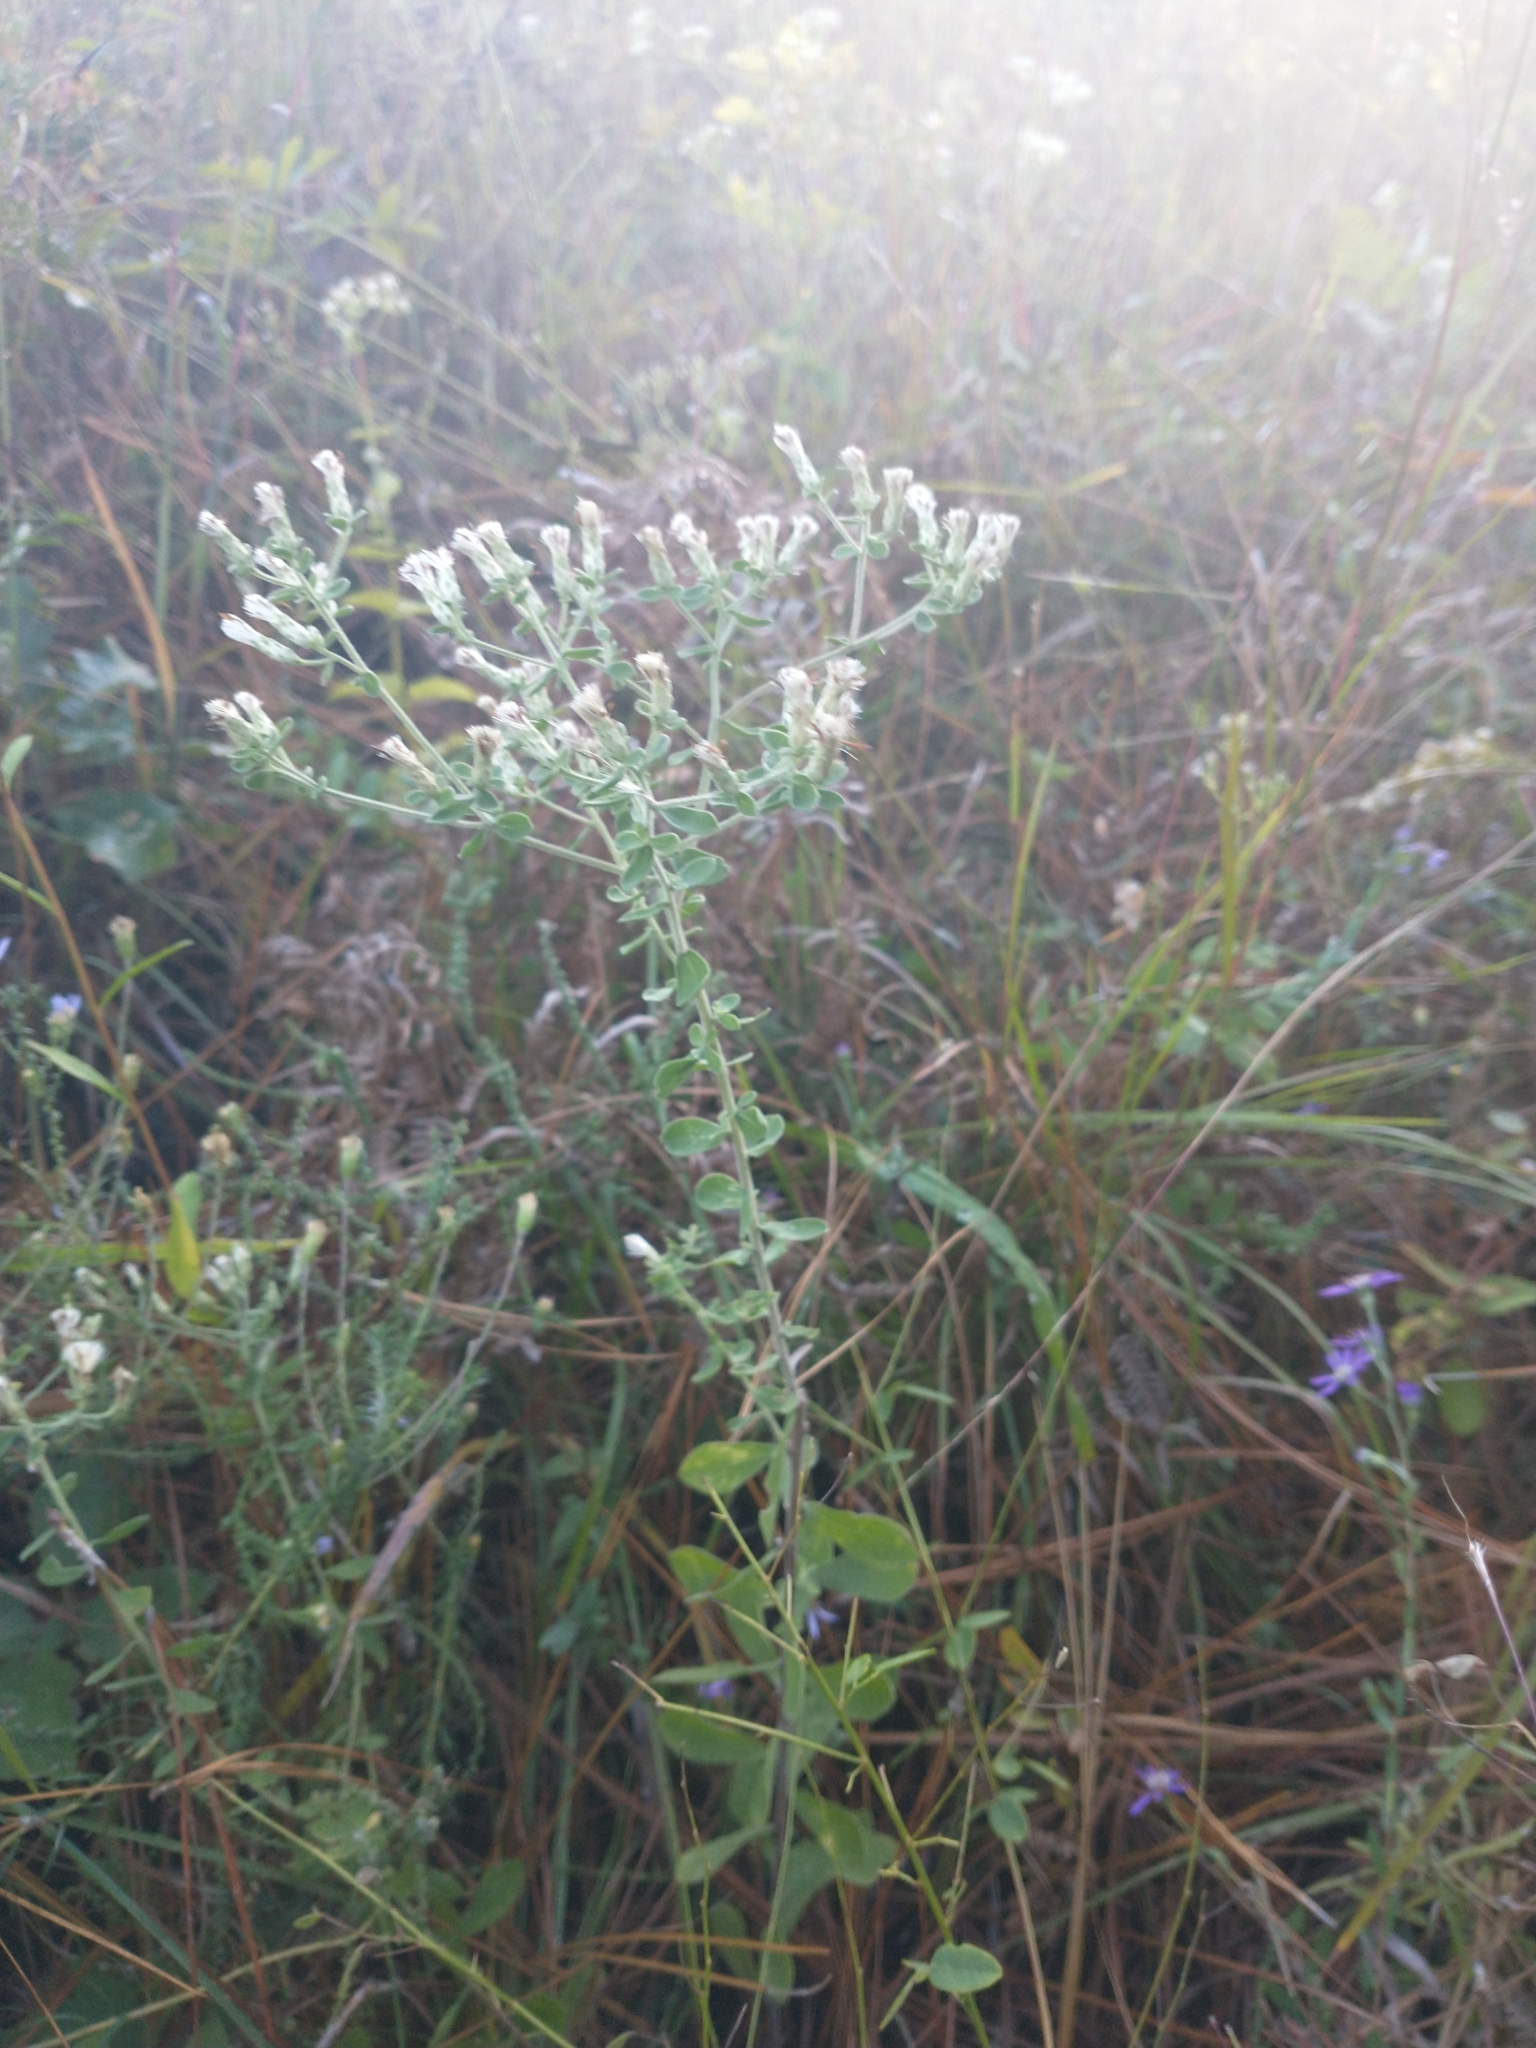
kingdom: Plantae
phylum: Tracheophyta
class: Magnoliopsida
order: Asterales
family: Asteraceae
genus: Sericocarpus
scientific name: Sericocarpus tortifolius
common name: Dixie aster
